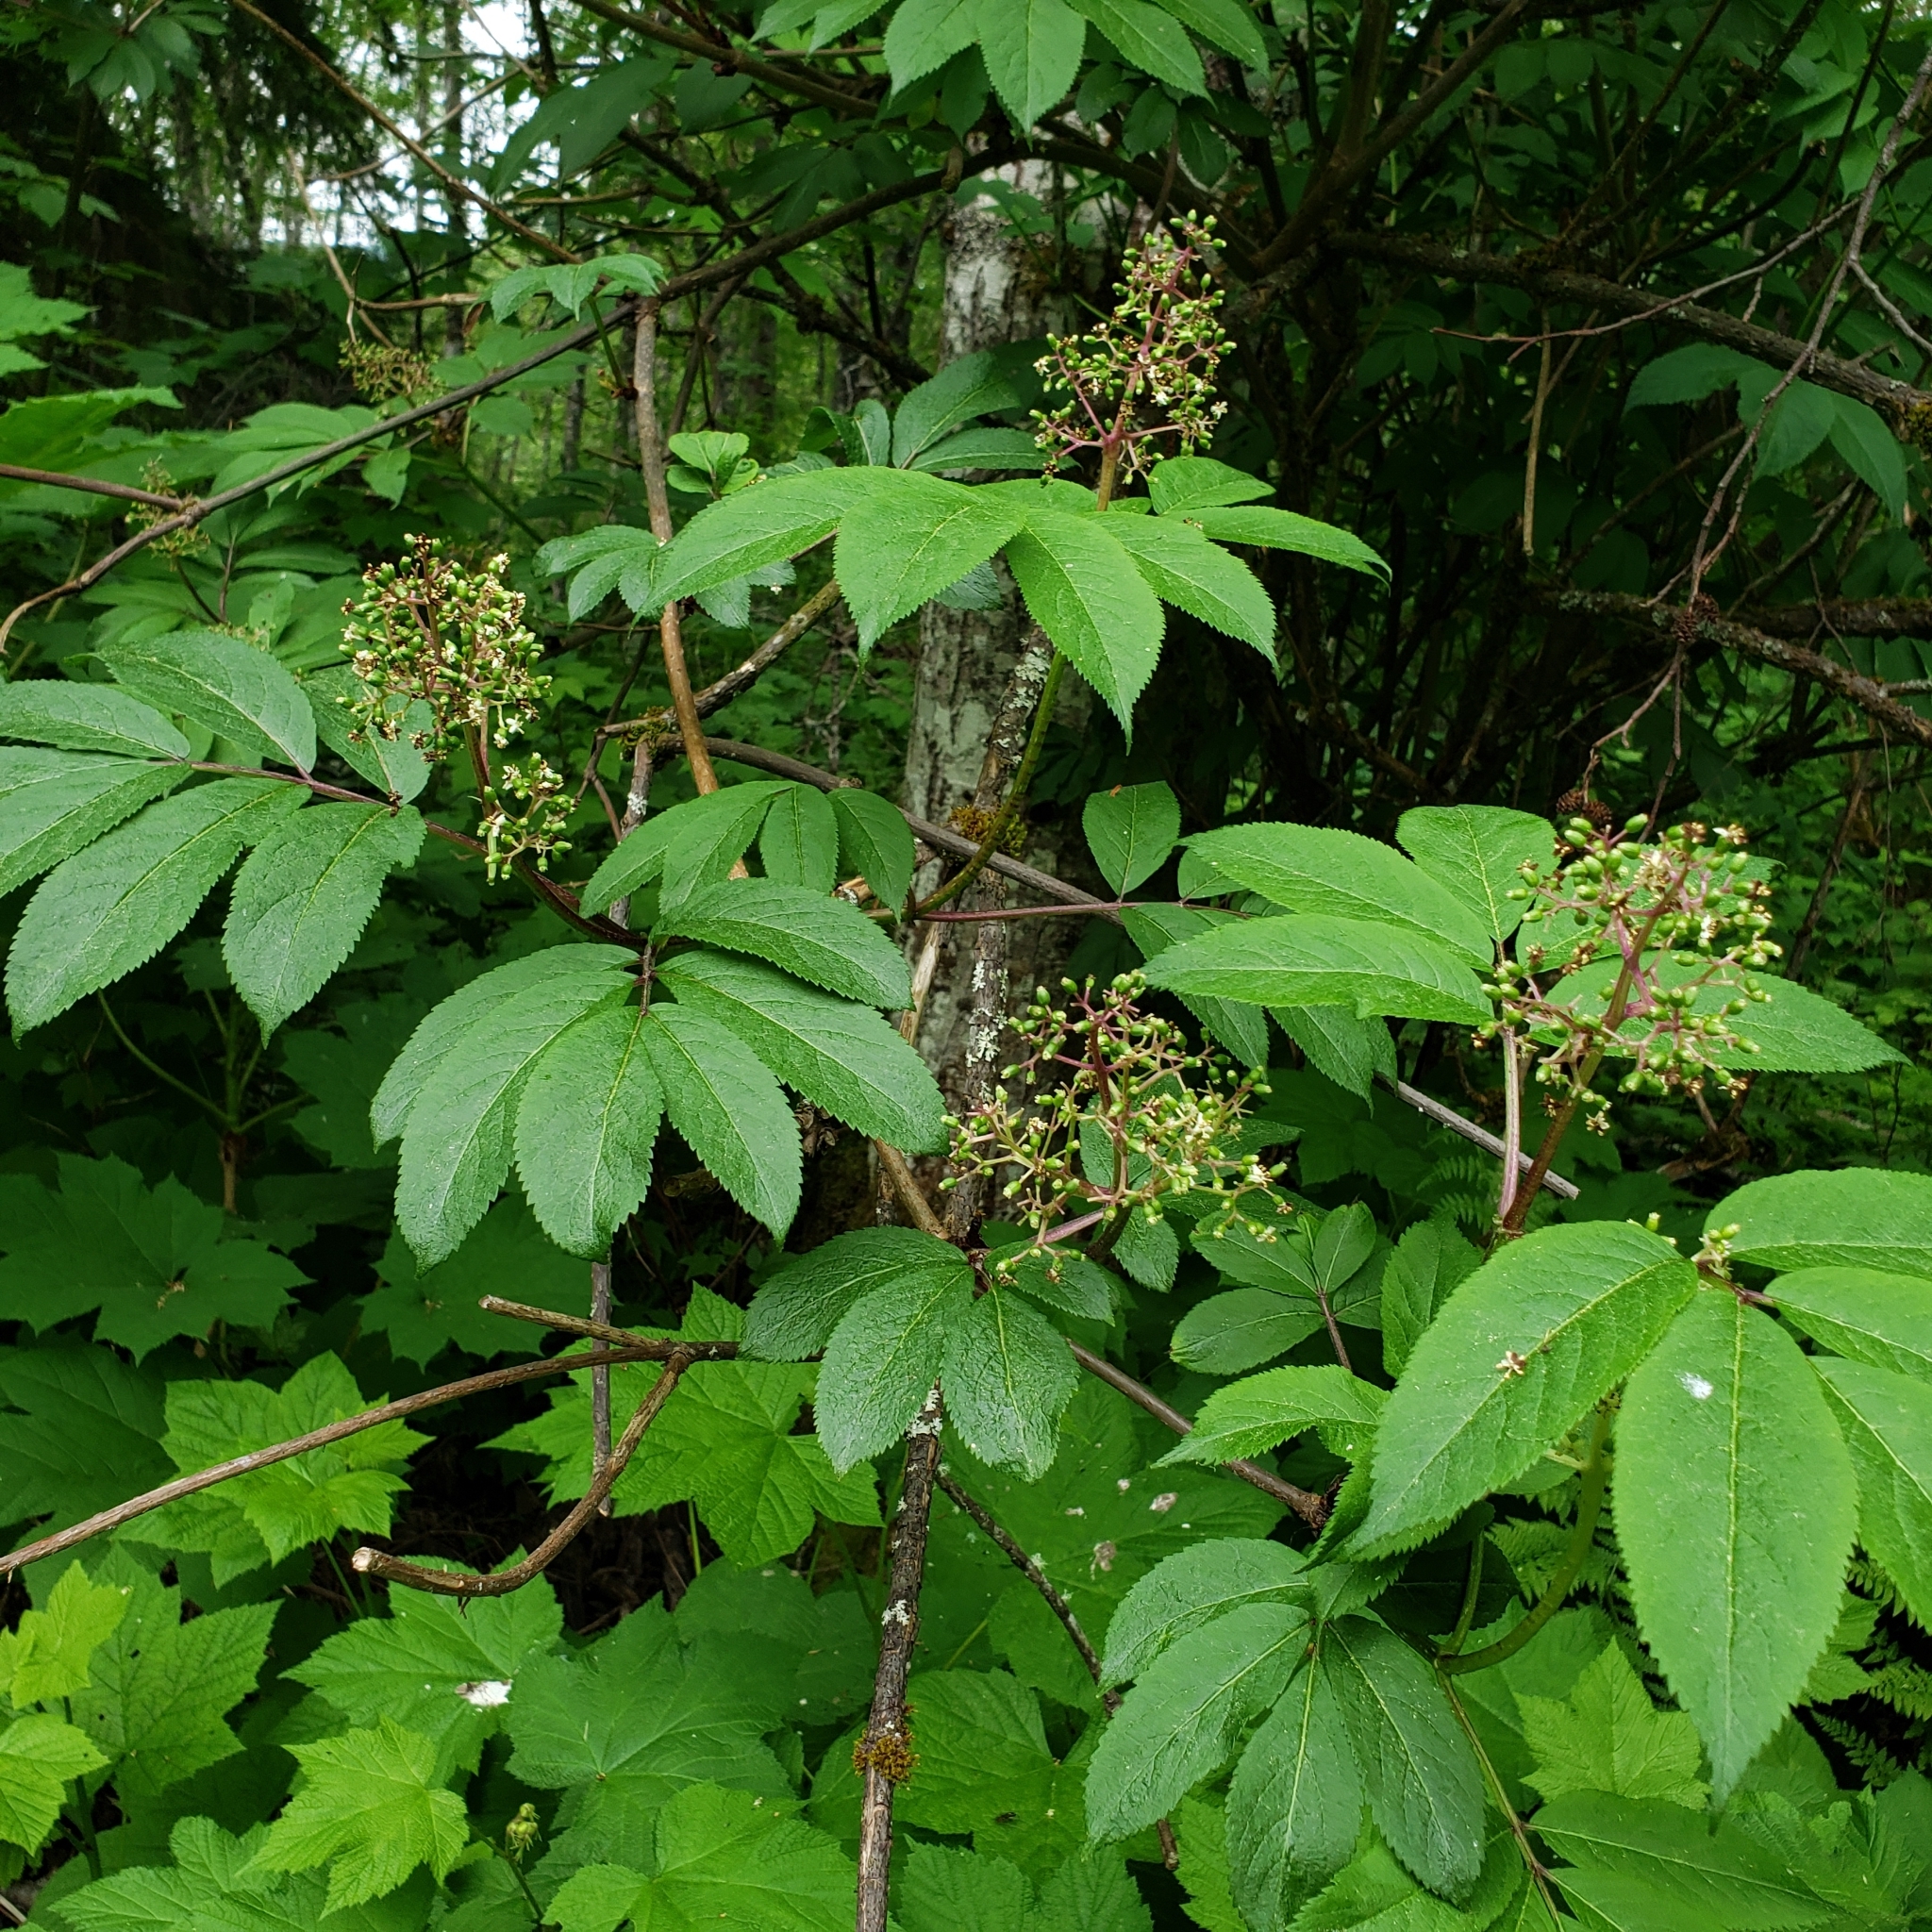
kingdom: Plantae
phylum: Tracheophyta
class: Magnoliopsida
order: Dipsacales
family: Viburnaceae
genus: Sambucus
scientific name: Sambucus racemosa
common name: Red-berried elder
